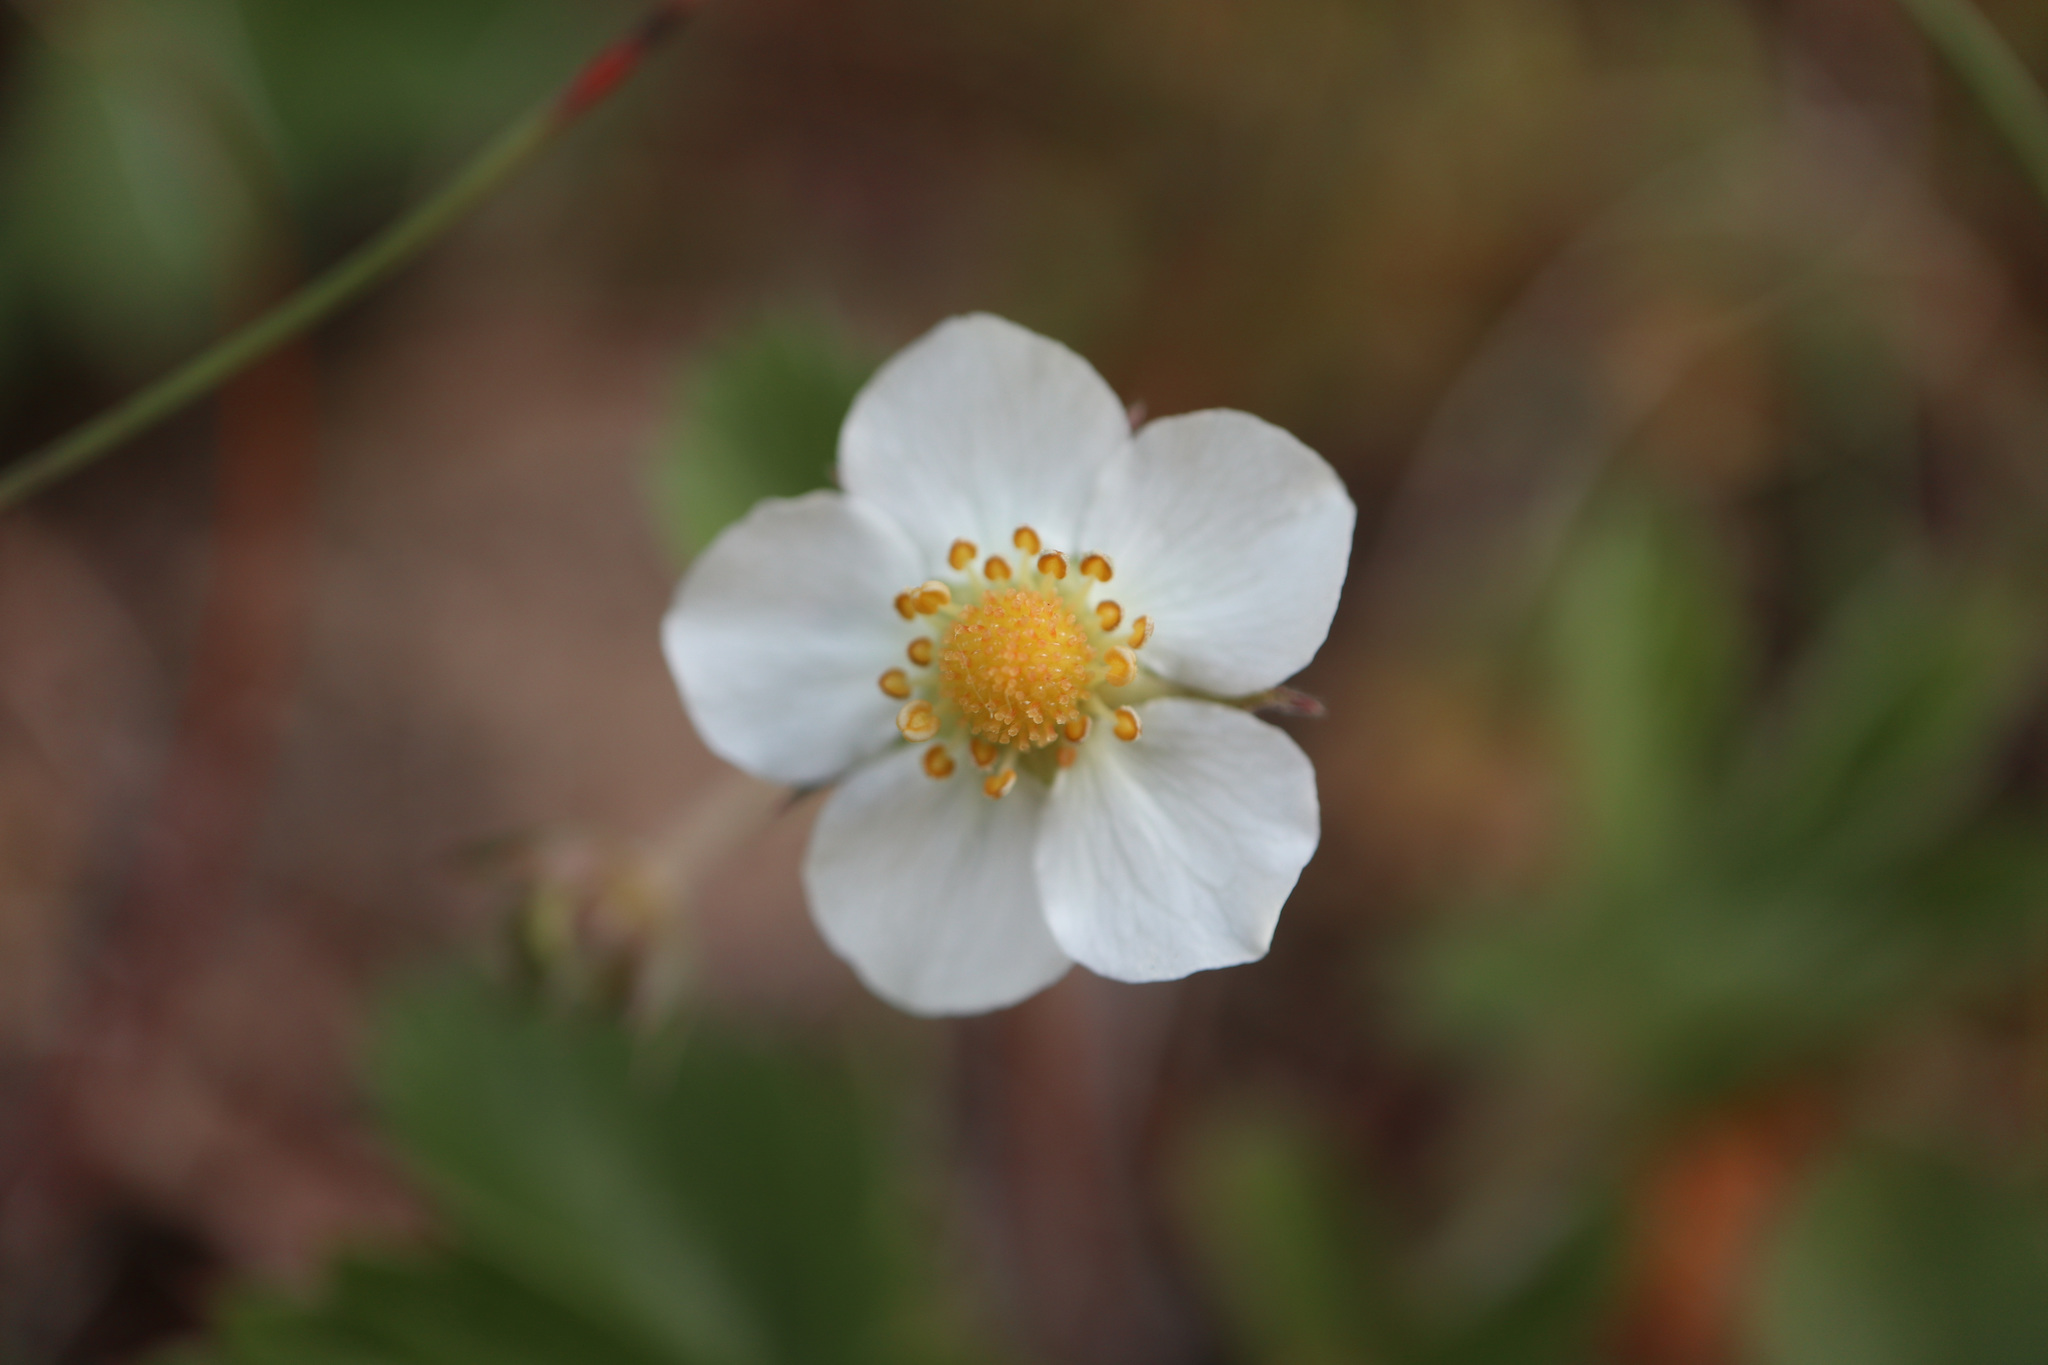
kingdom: Plantae
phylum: Tracheophyta
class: Magnoliopsida
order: Rosales
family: Rosaceae
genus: Fragaria
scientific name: Fragaria vesca
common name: Wild strawberry
